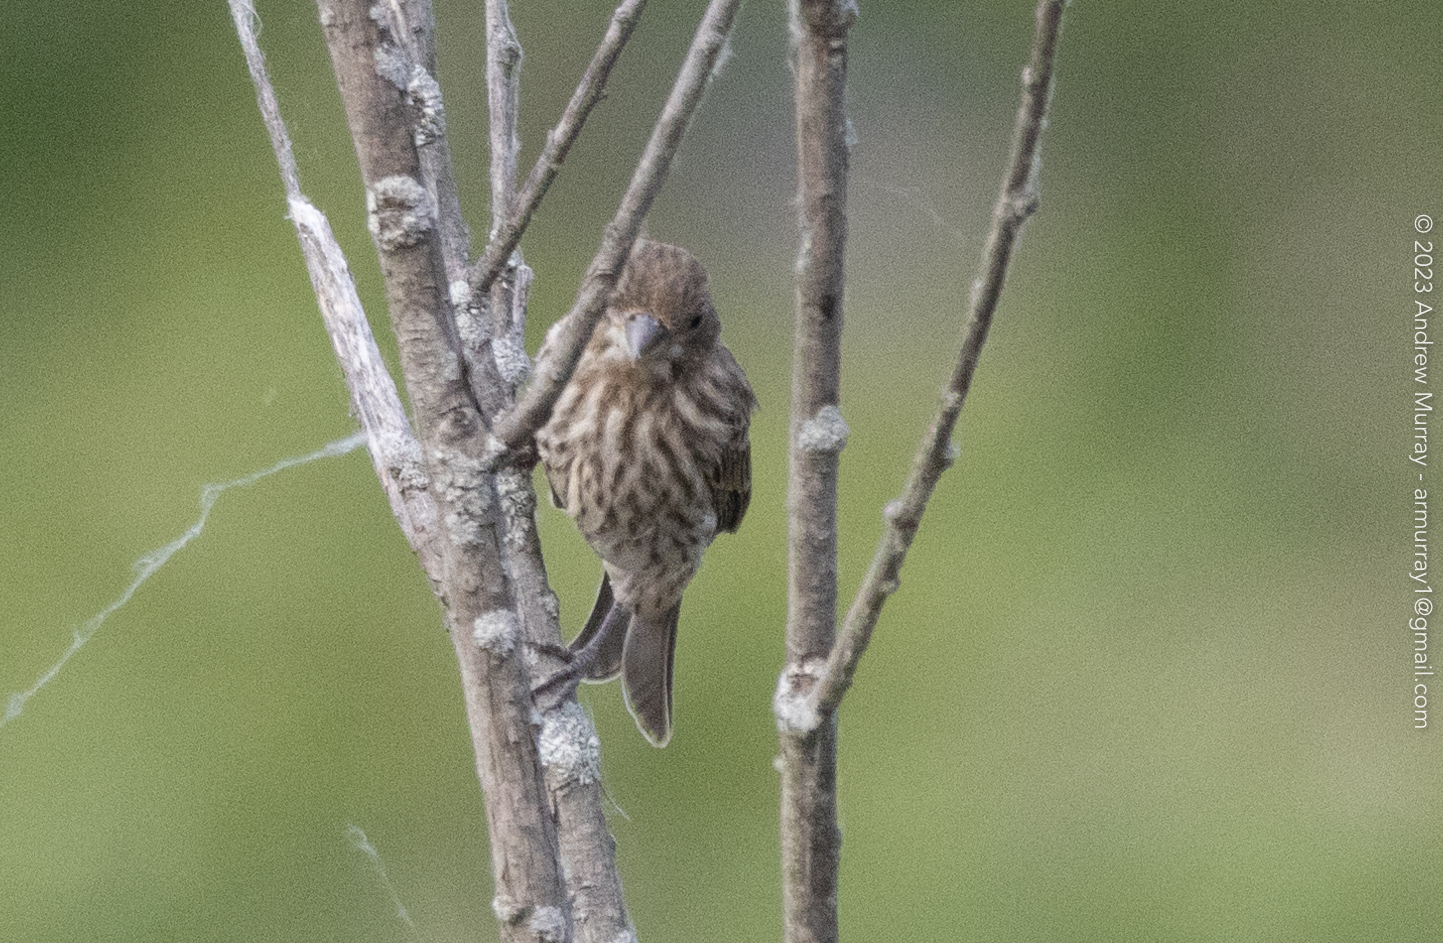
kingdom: Animalia
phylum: Chordata
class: Aves
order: Passeriformes
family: Fringillidae
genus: Haemorhous
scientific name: Haemorhous mexicanus
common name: House finch
